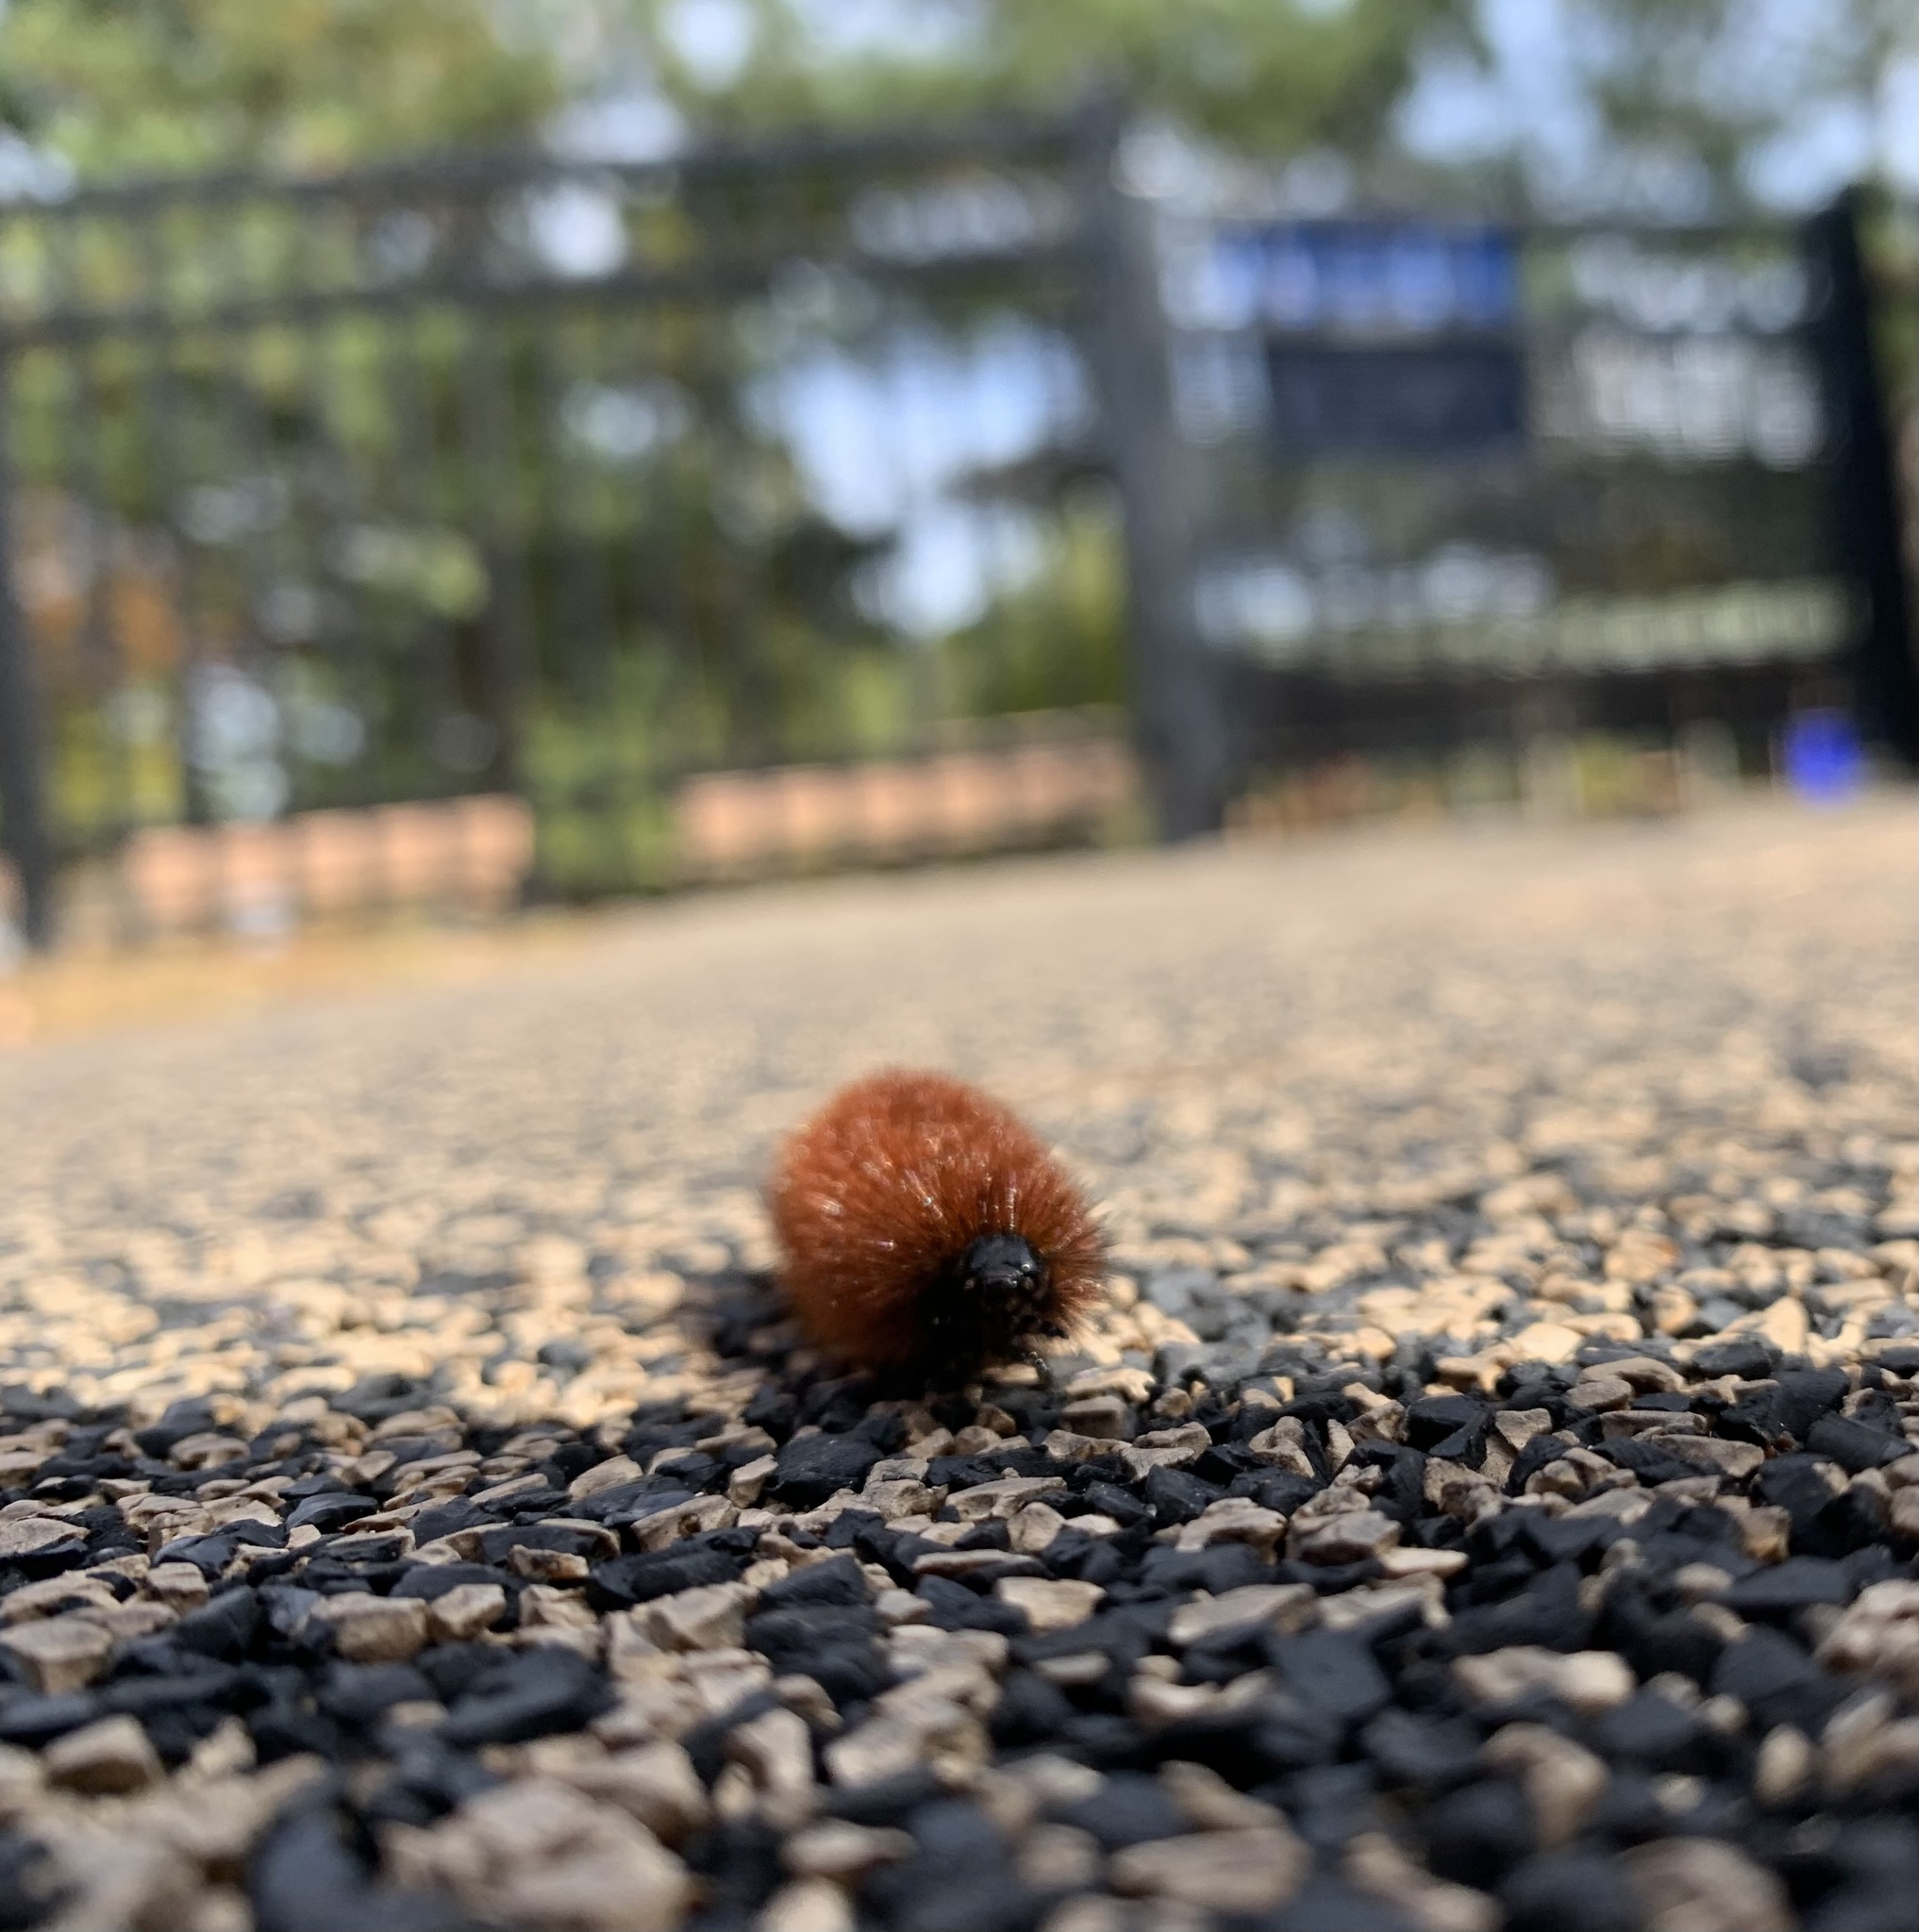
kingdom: Animalia
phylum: Arthropoda
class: Insecta
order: Lepidoptera
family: Erebidae
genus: Pyrrharctia
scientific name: Pyrrharctia isabella
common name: Isabella tiger moth
